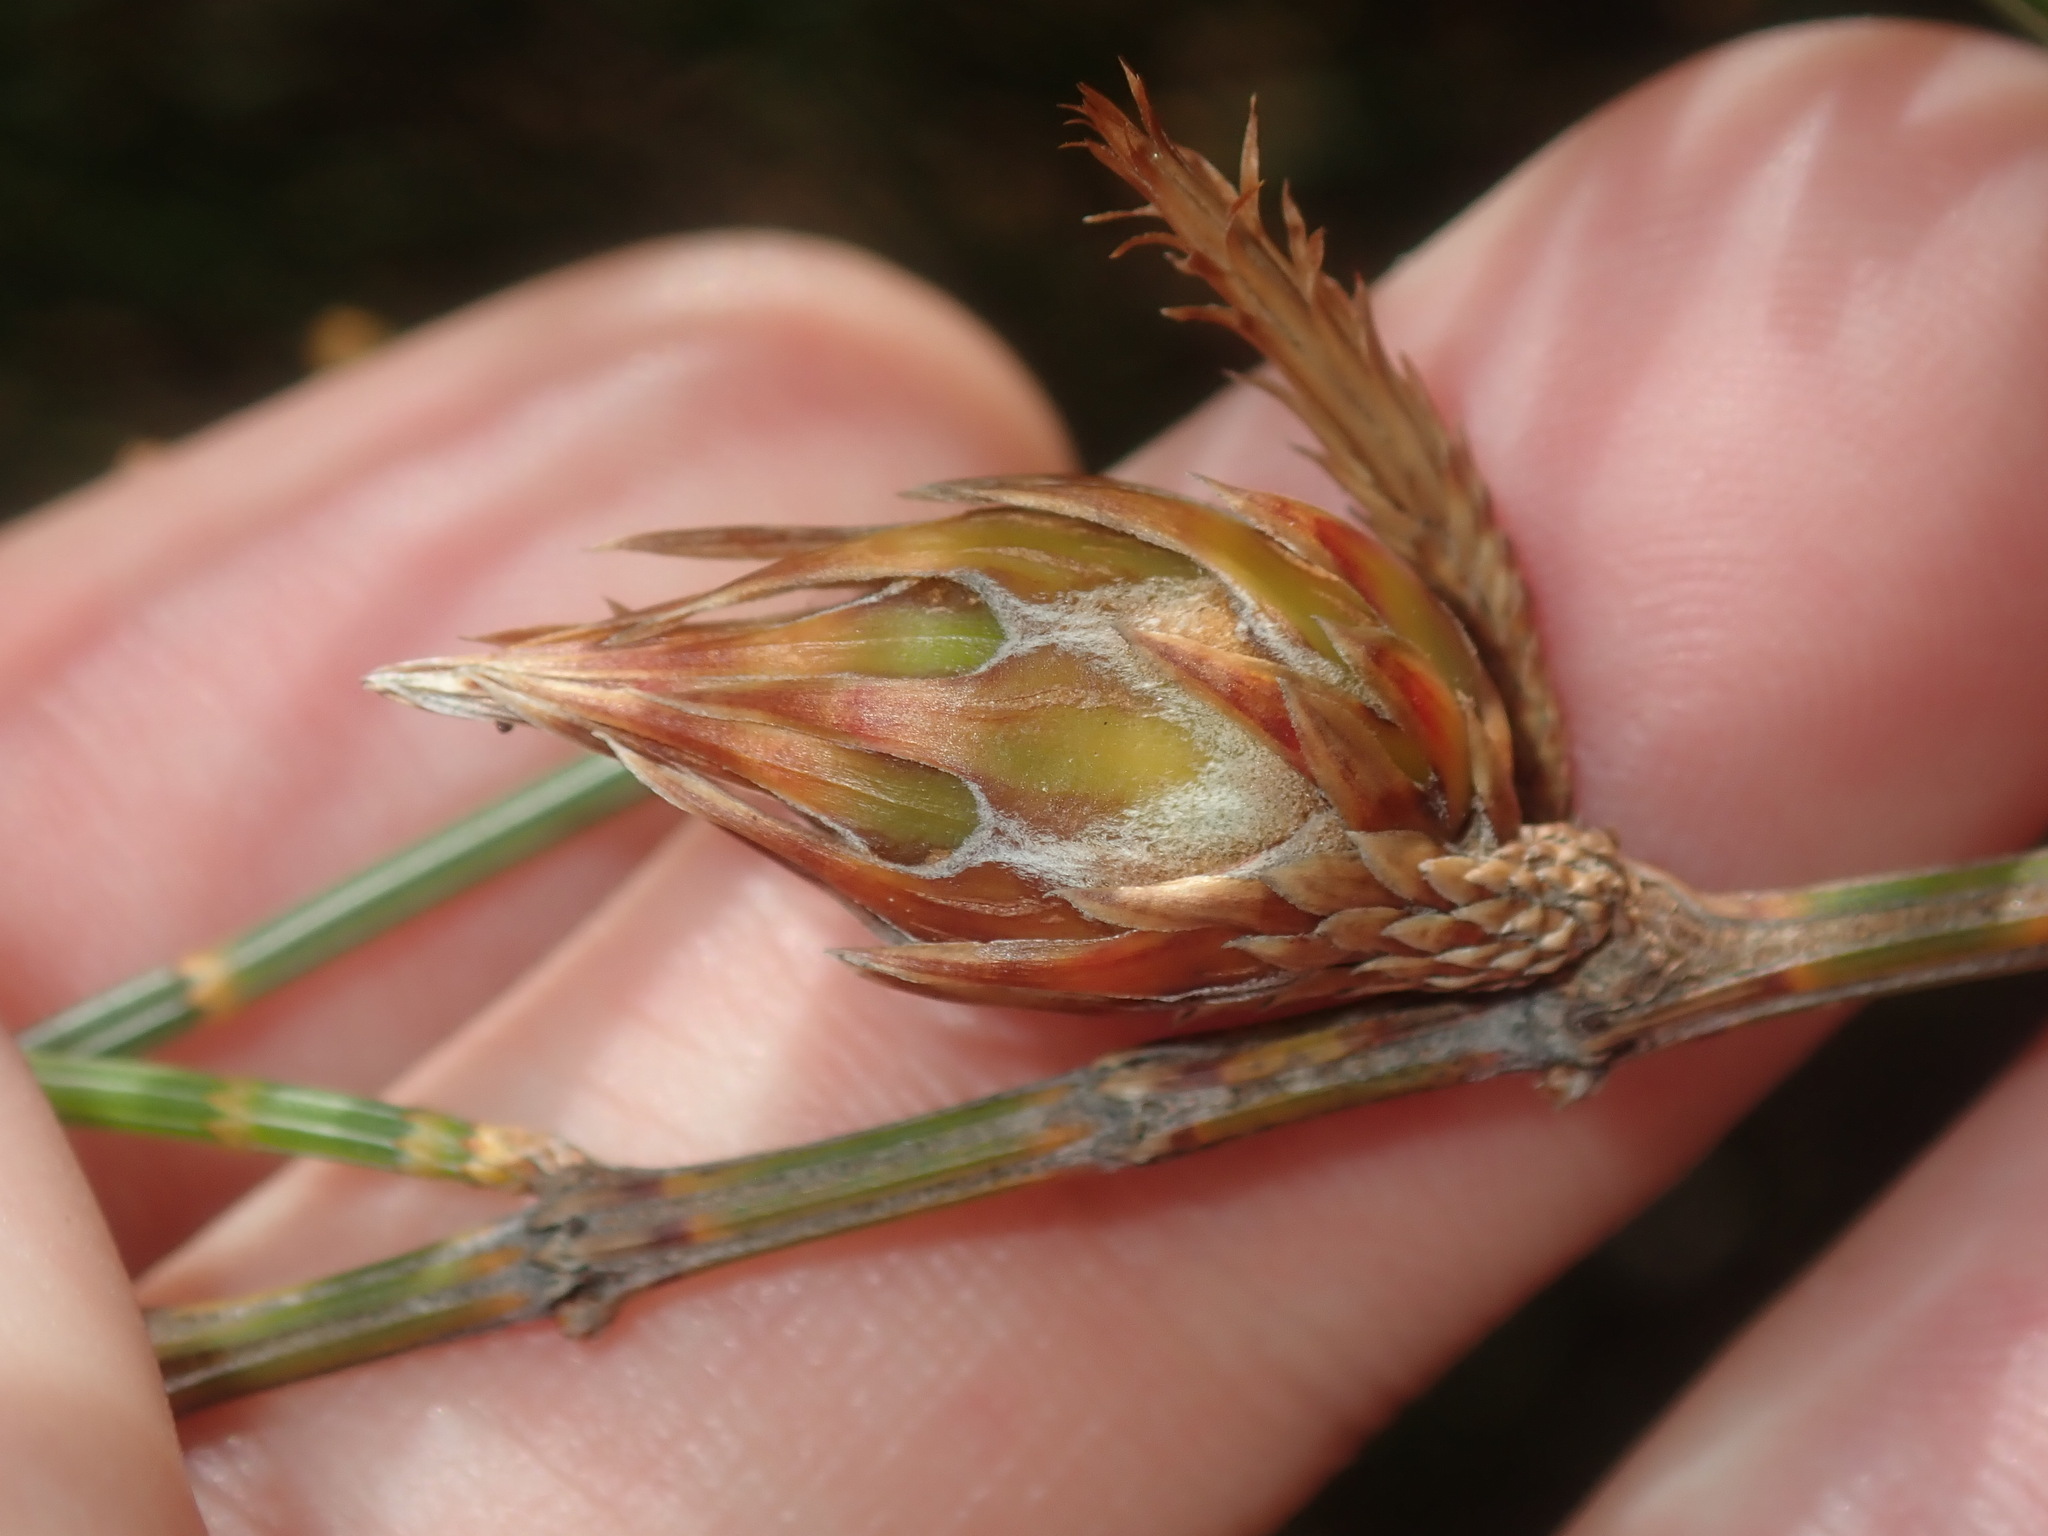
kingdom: Animalia
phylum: Arthropoda
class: Insecta
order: Hemiptera
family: Eriococcidae
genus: Cylindrococcus
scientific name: Cylindrococcus spiniferus
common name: Casuarina gall
